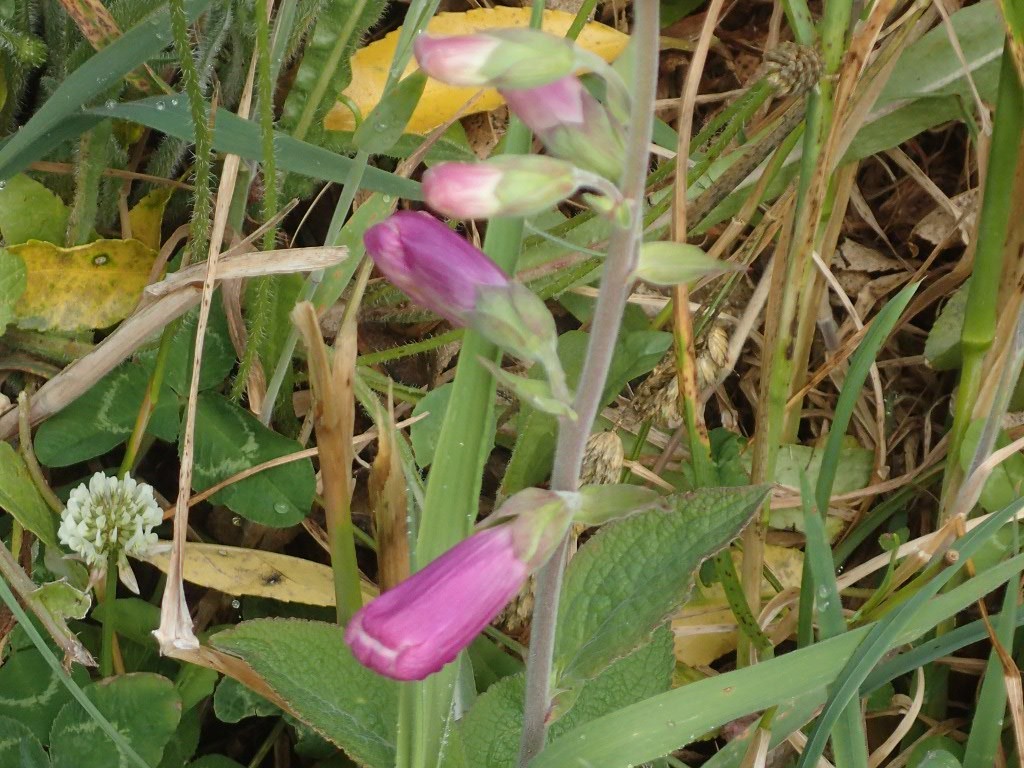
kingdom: Plantae
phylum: Tracheophyta
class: Magnoliopsida
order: Lamiales
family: Plantaginaceae
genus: Digitalis
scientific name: Digitalis purpurea
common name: Foxglove
